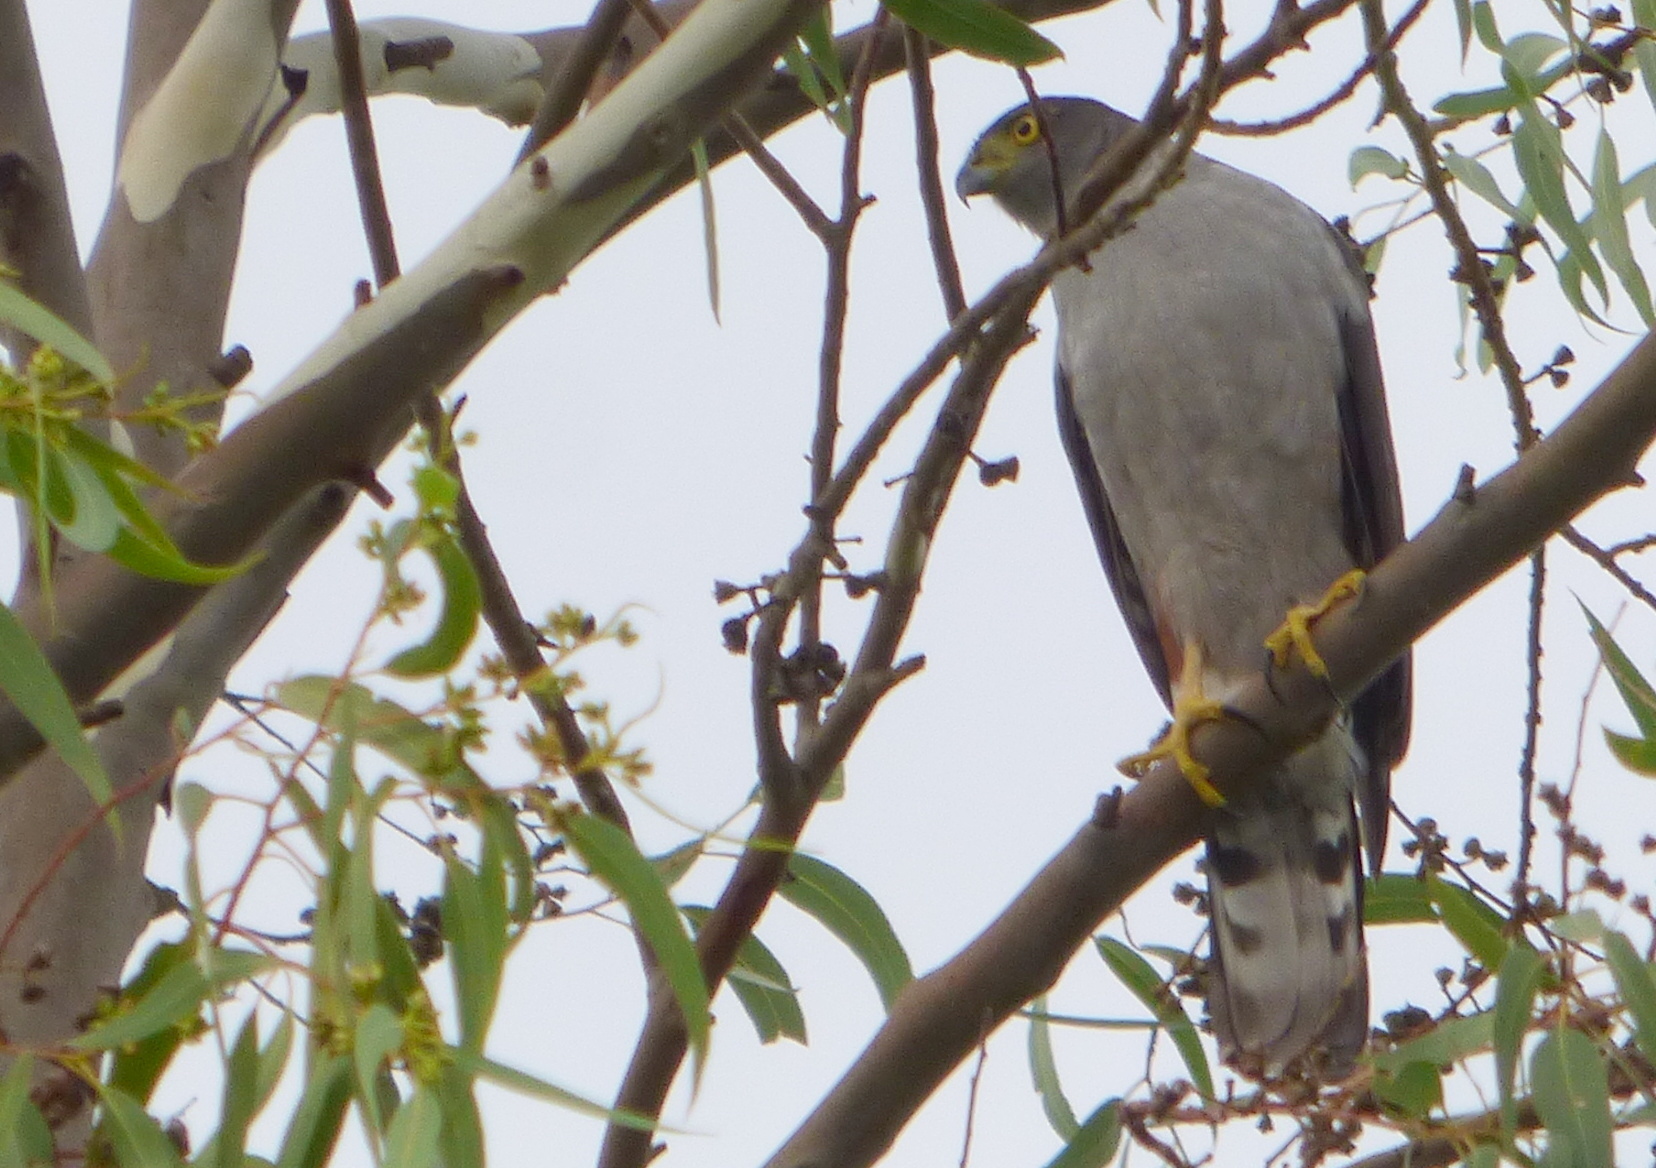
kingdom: Animalia
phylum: Chordata
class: Aves
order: Accipitriformes
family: Accipitridae
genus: Accipiter
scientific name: Accipiter bicolor
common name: Bicolored hawk
